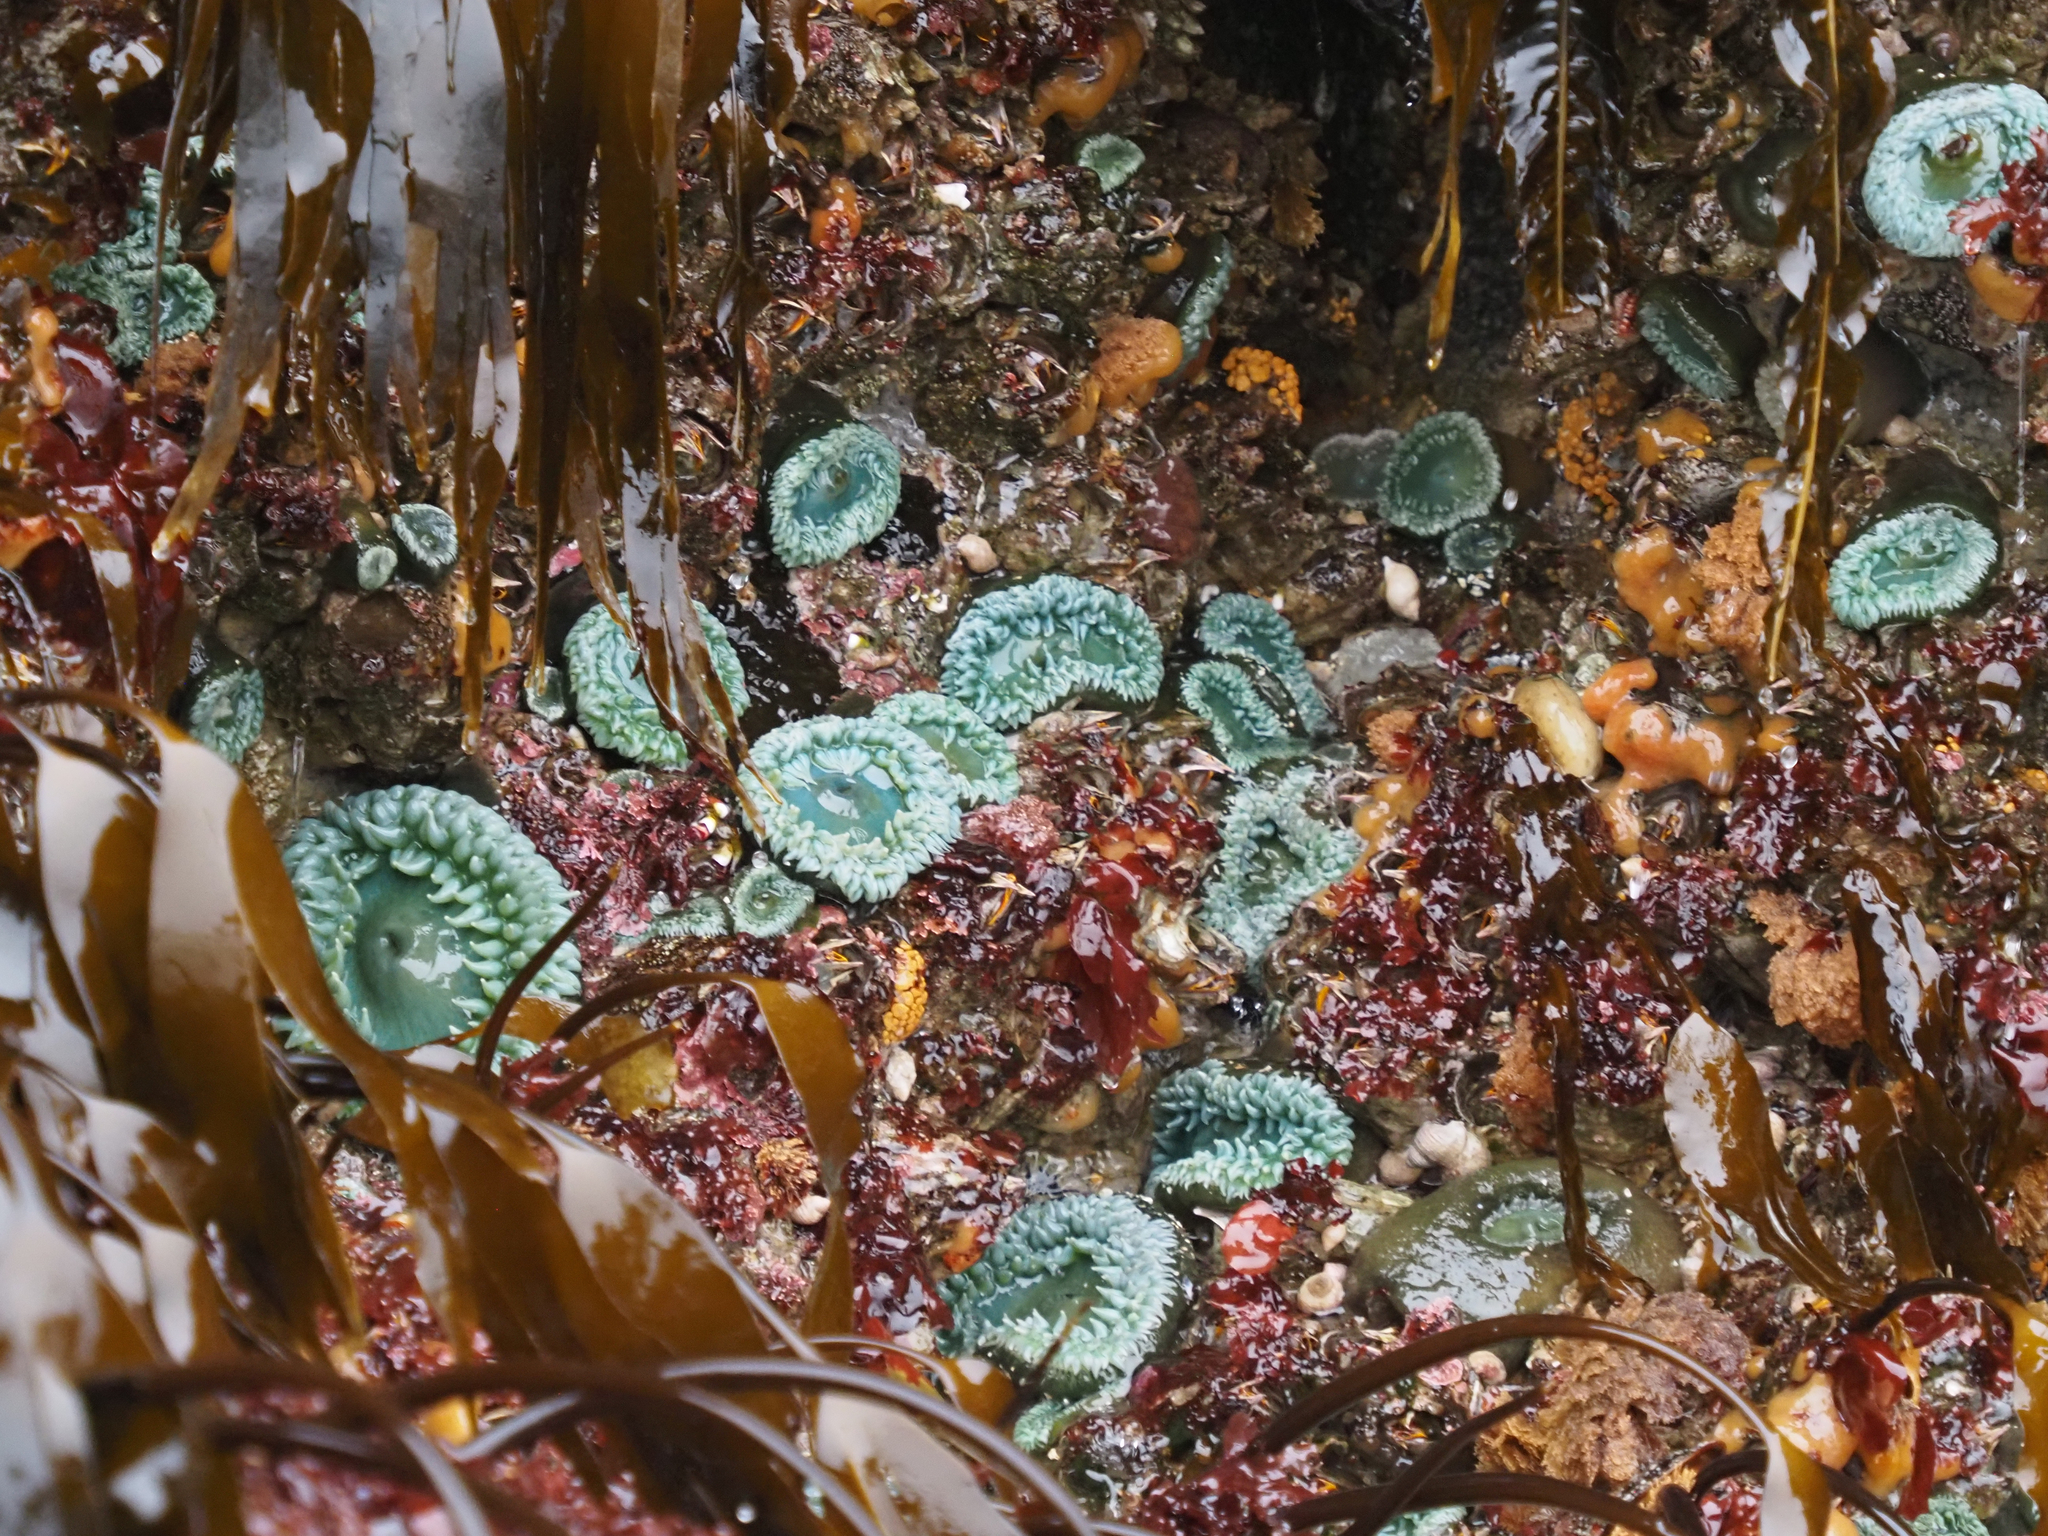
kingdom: Animalia
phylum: Cnidaria
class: Anthozoa
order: Actiniaria
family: Actiniidae
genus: Anthopleura
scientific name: Anthopleura xanthogrammica
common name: Giant green anemone
